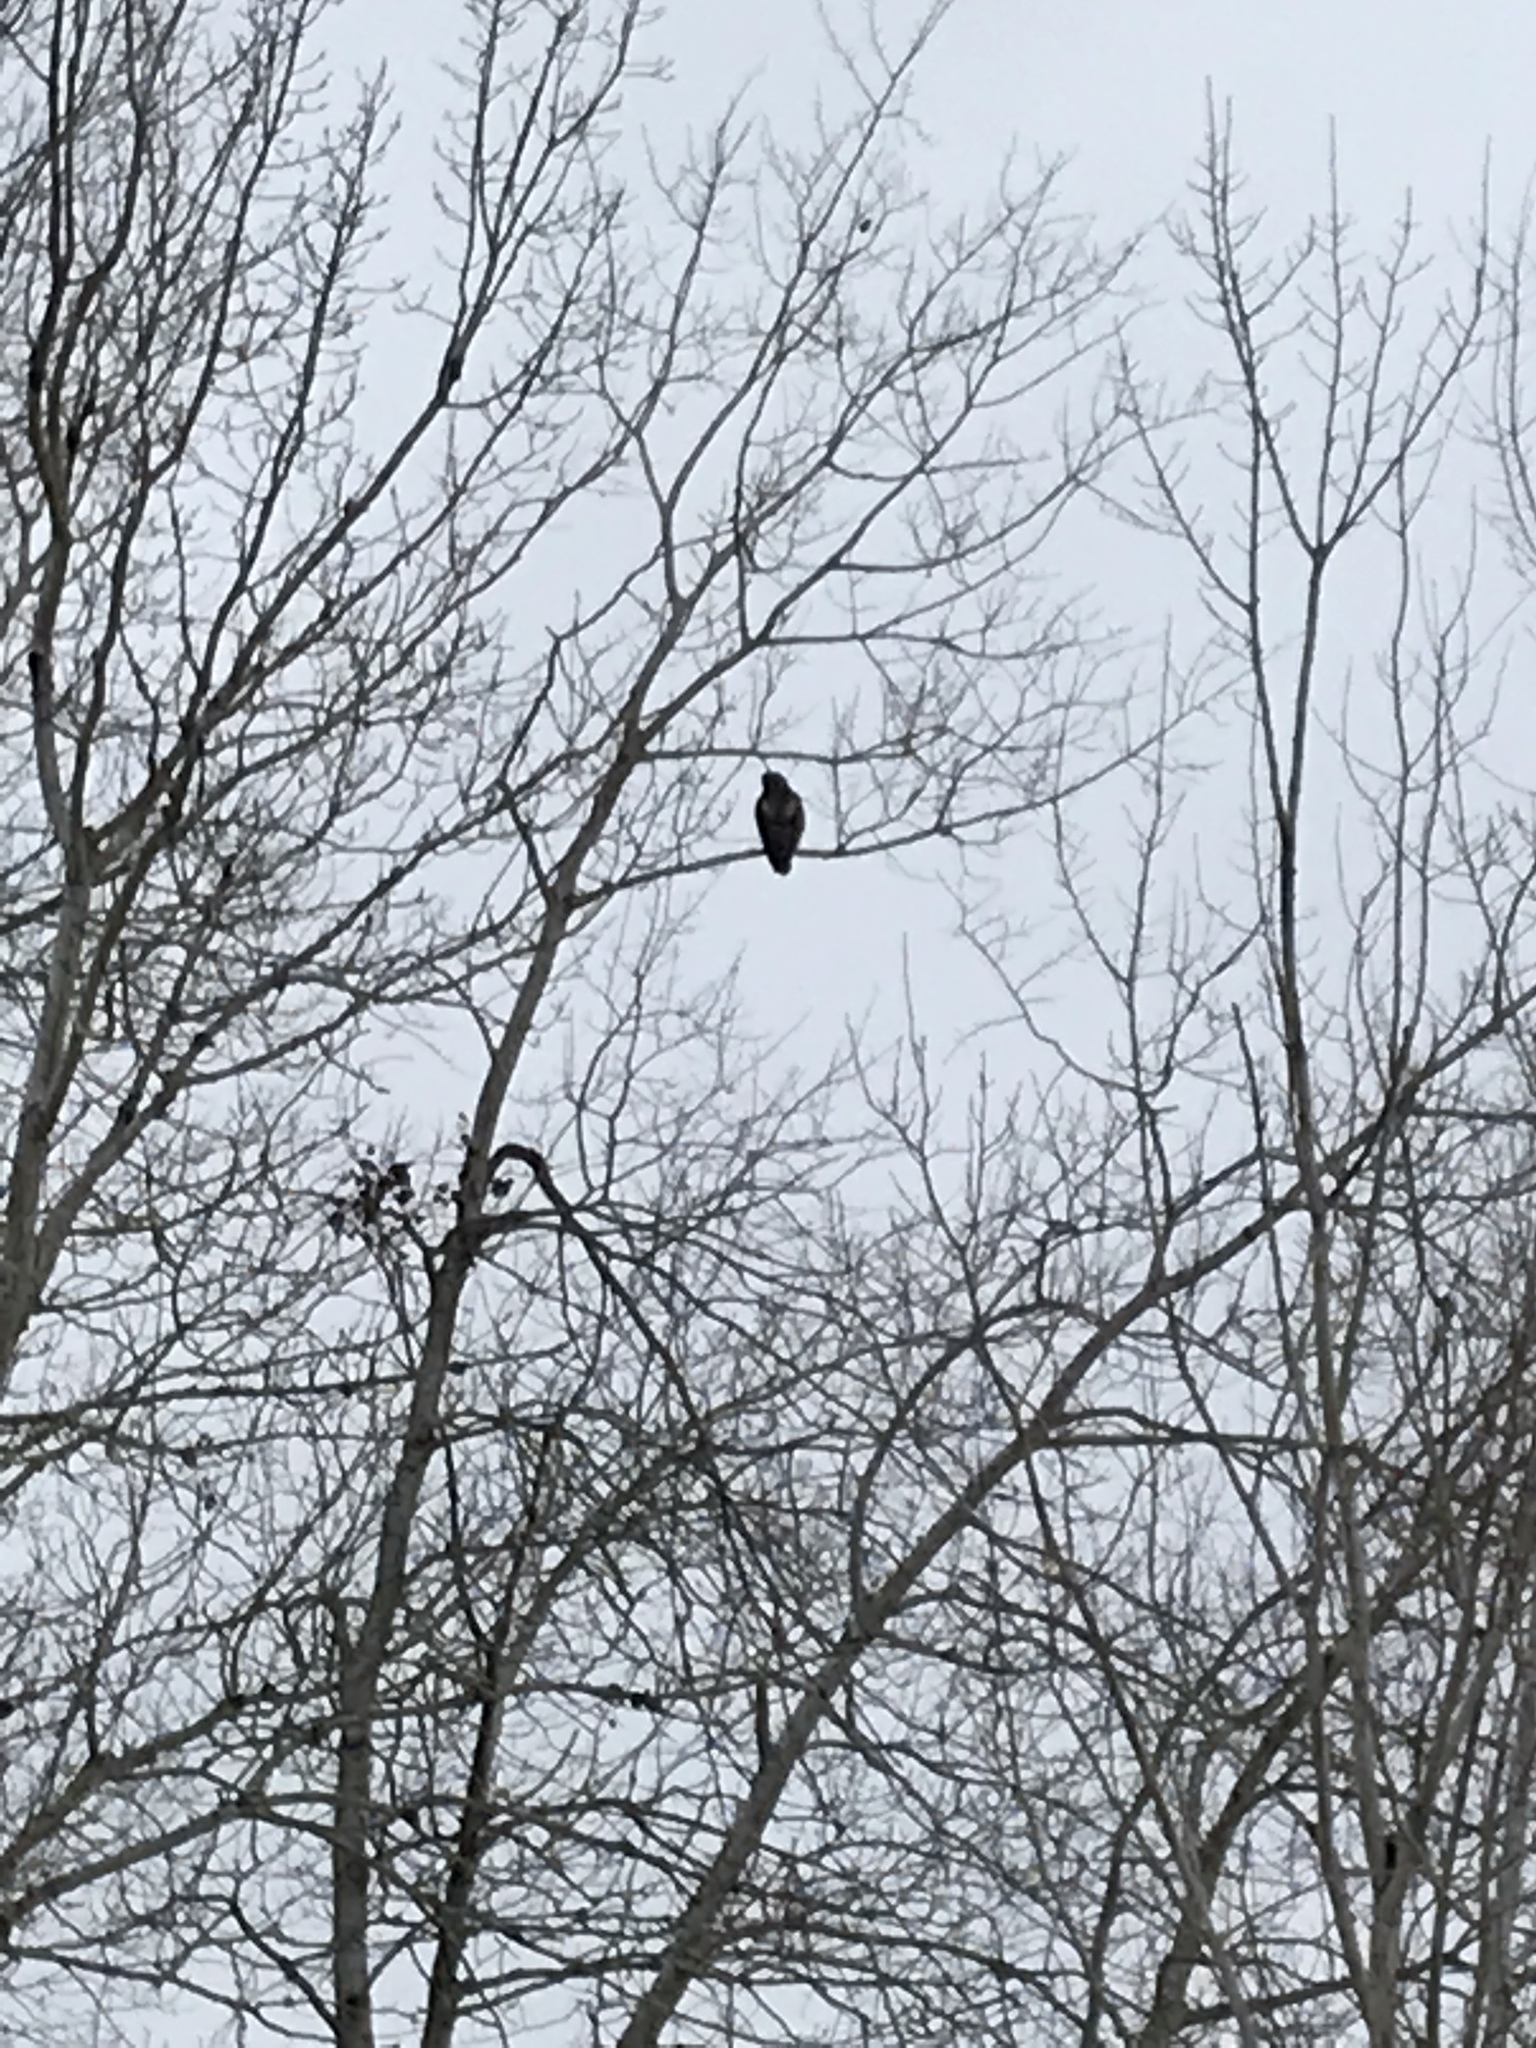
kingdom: Animalia
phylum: Chordata
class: Aves
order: Accipitriformes
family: Accipitridae
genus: Buteo
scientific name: Buteo jamaicensis
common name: Red-tailed hawk
